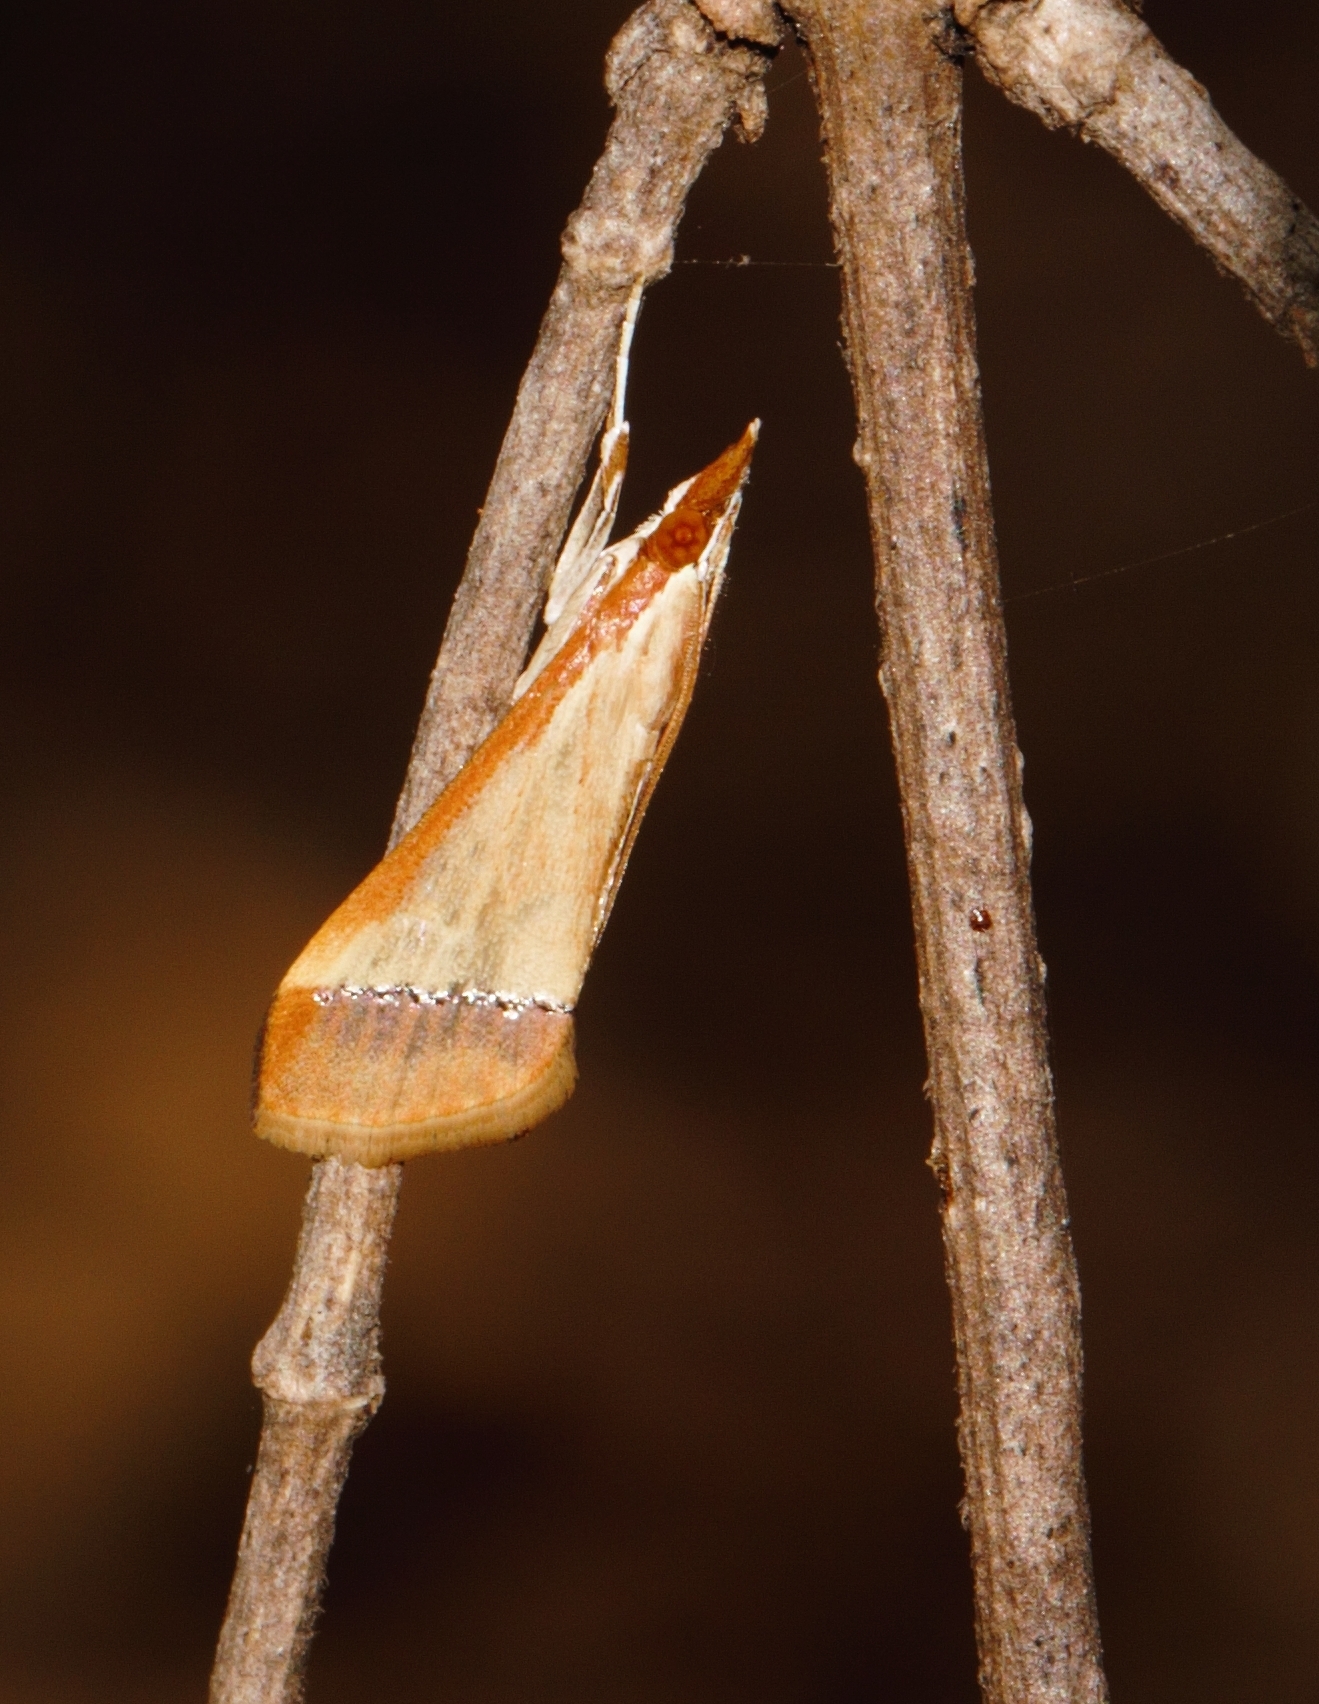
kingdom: Animalia
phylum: Arthropoda
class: Insecta
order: Lepidoptera
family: Crambidae
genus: Autocharis
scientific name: Autocharis fessalis
